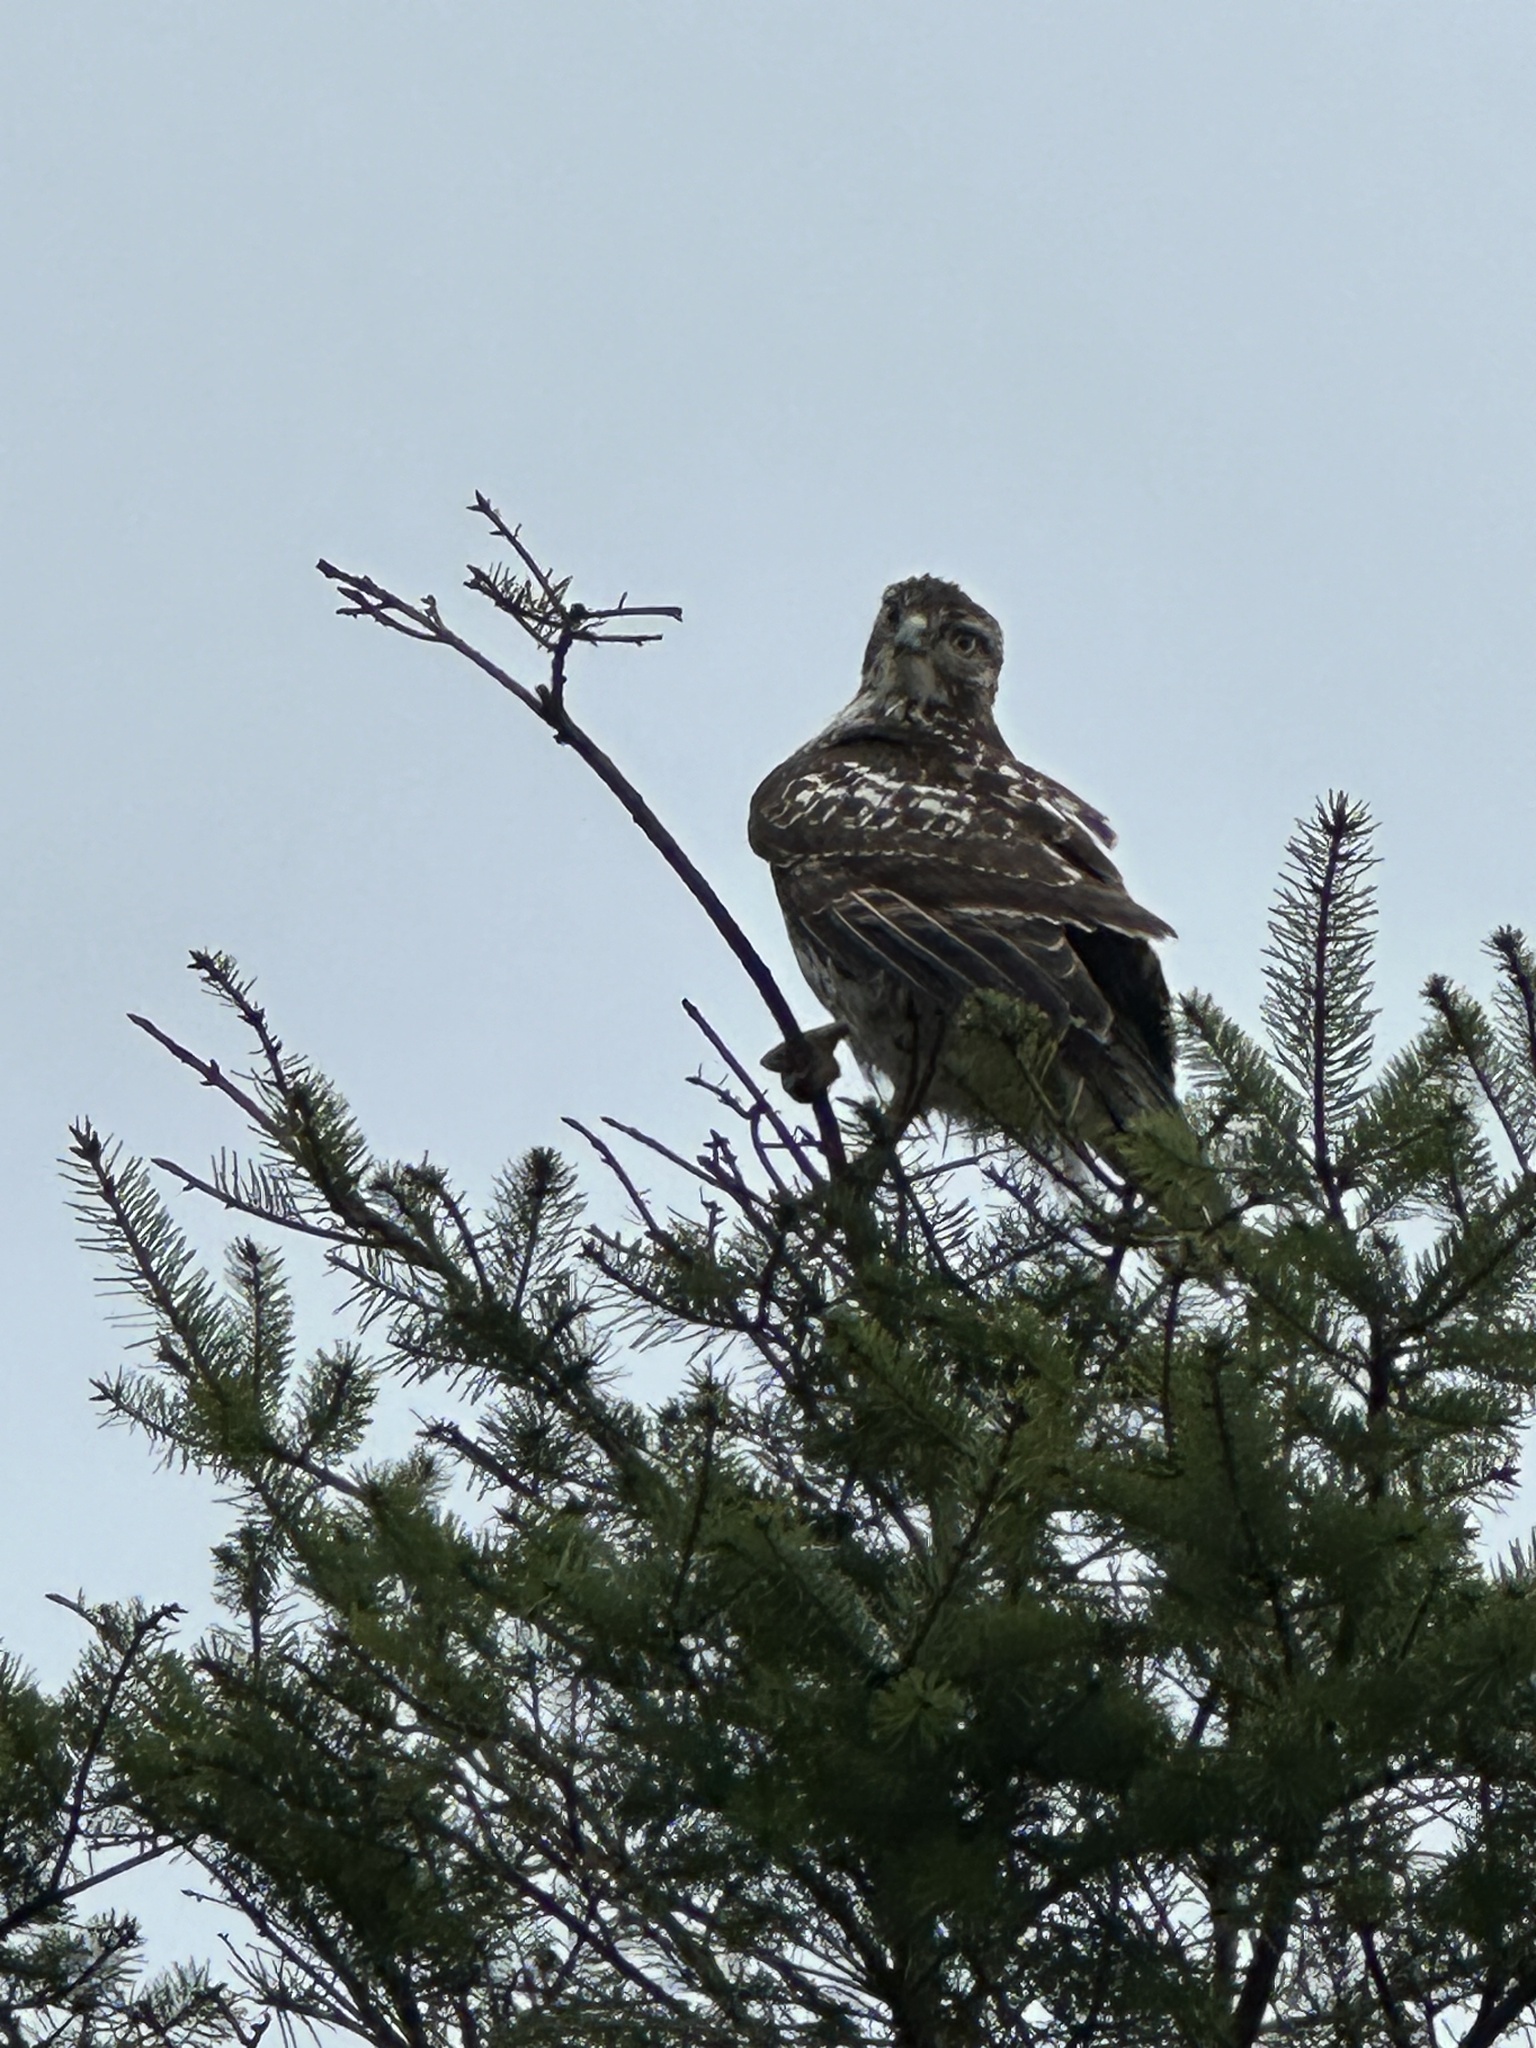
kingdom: Animalia
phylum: Chordata
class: Aves
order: Accipitriformes
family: Accipitridae
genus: Buteo
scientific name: Buteo jamaicensis
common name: Red-tailed hawk
